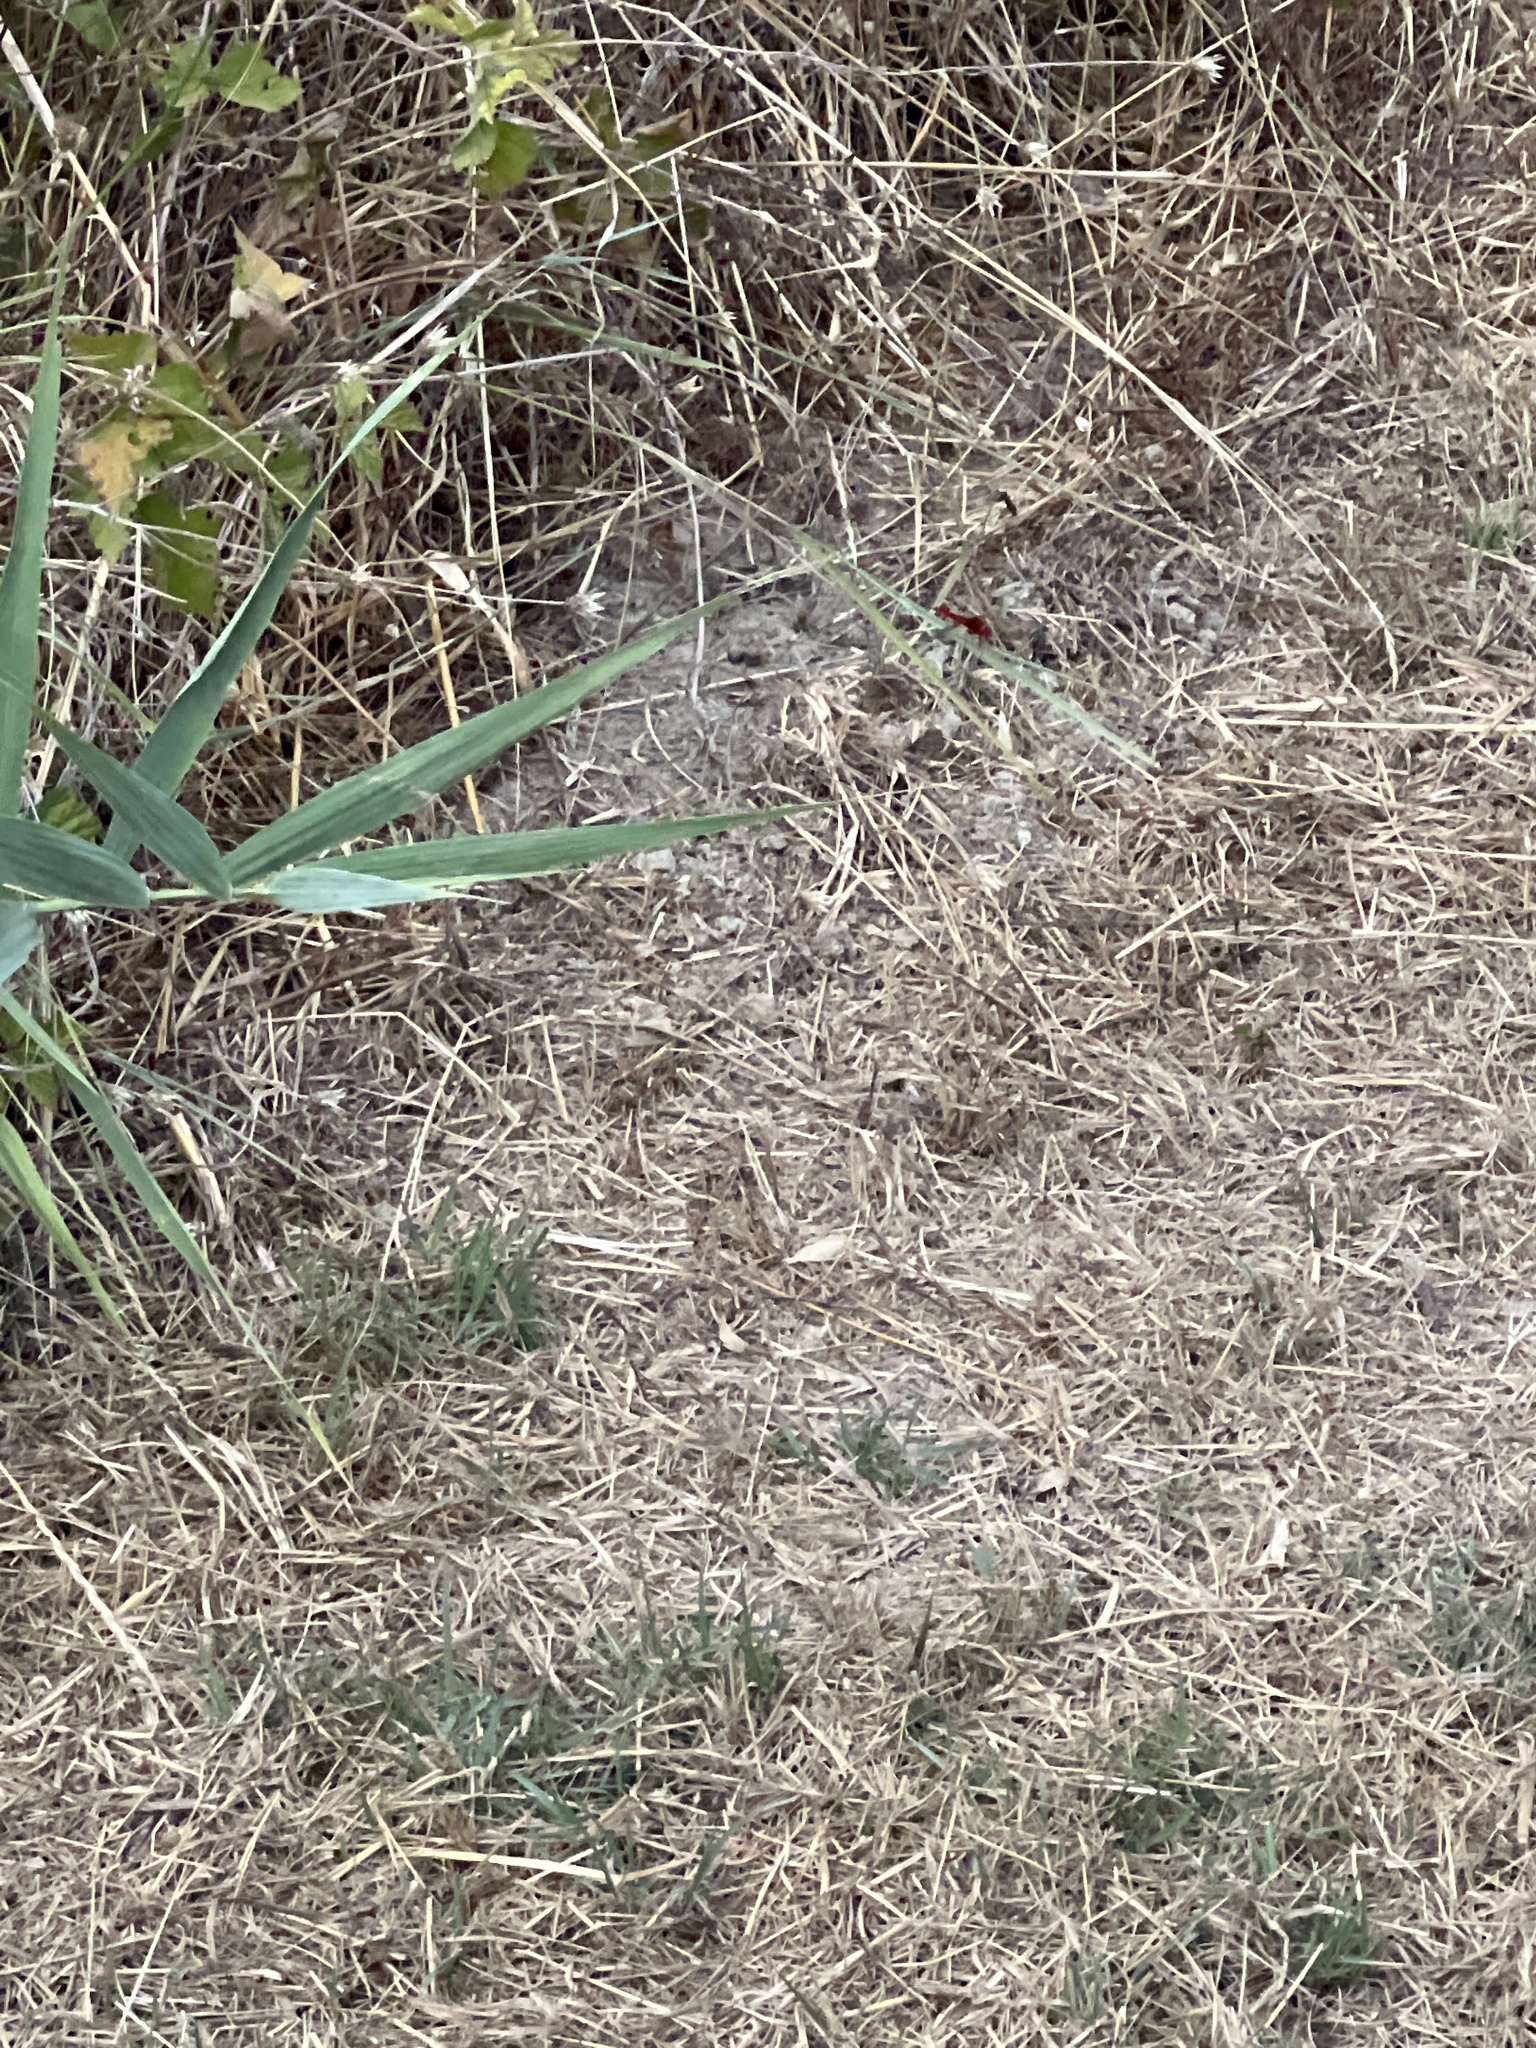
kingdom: Animalia
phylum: Arthropoda
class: Insecta
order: Odonata
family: Libellulidae
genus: Crocothemis
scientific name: Crocothemis erythraea
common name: Scarlet dragonfly
